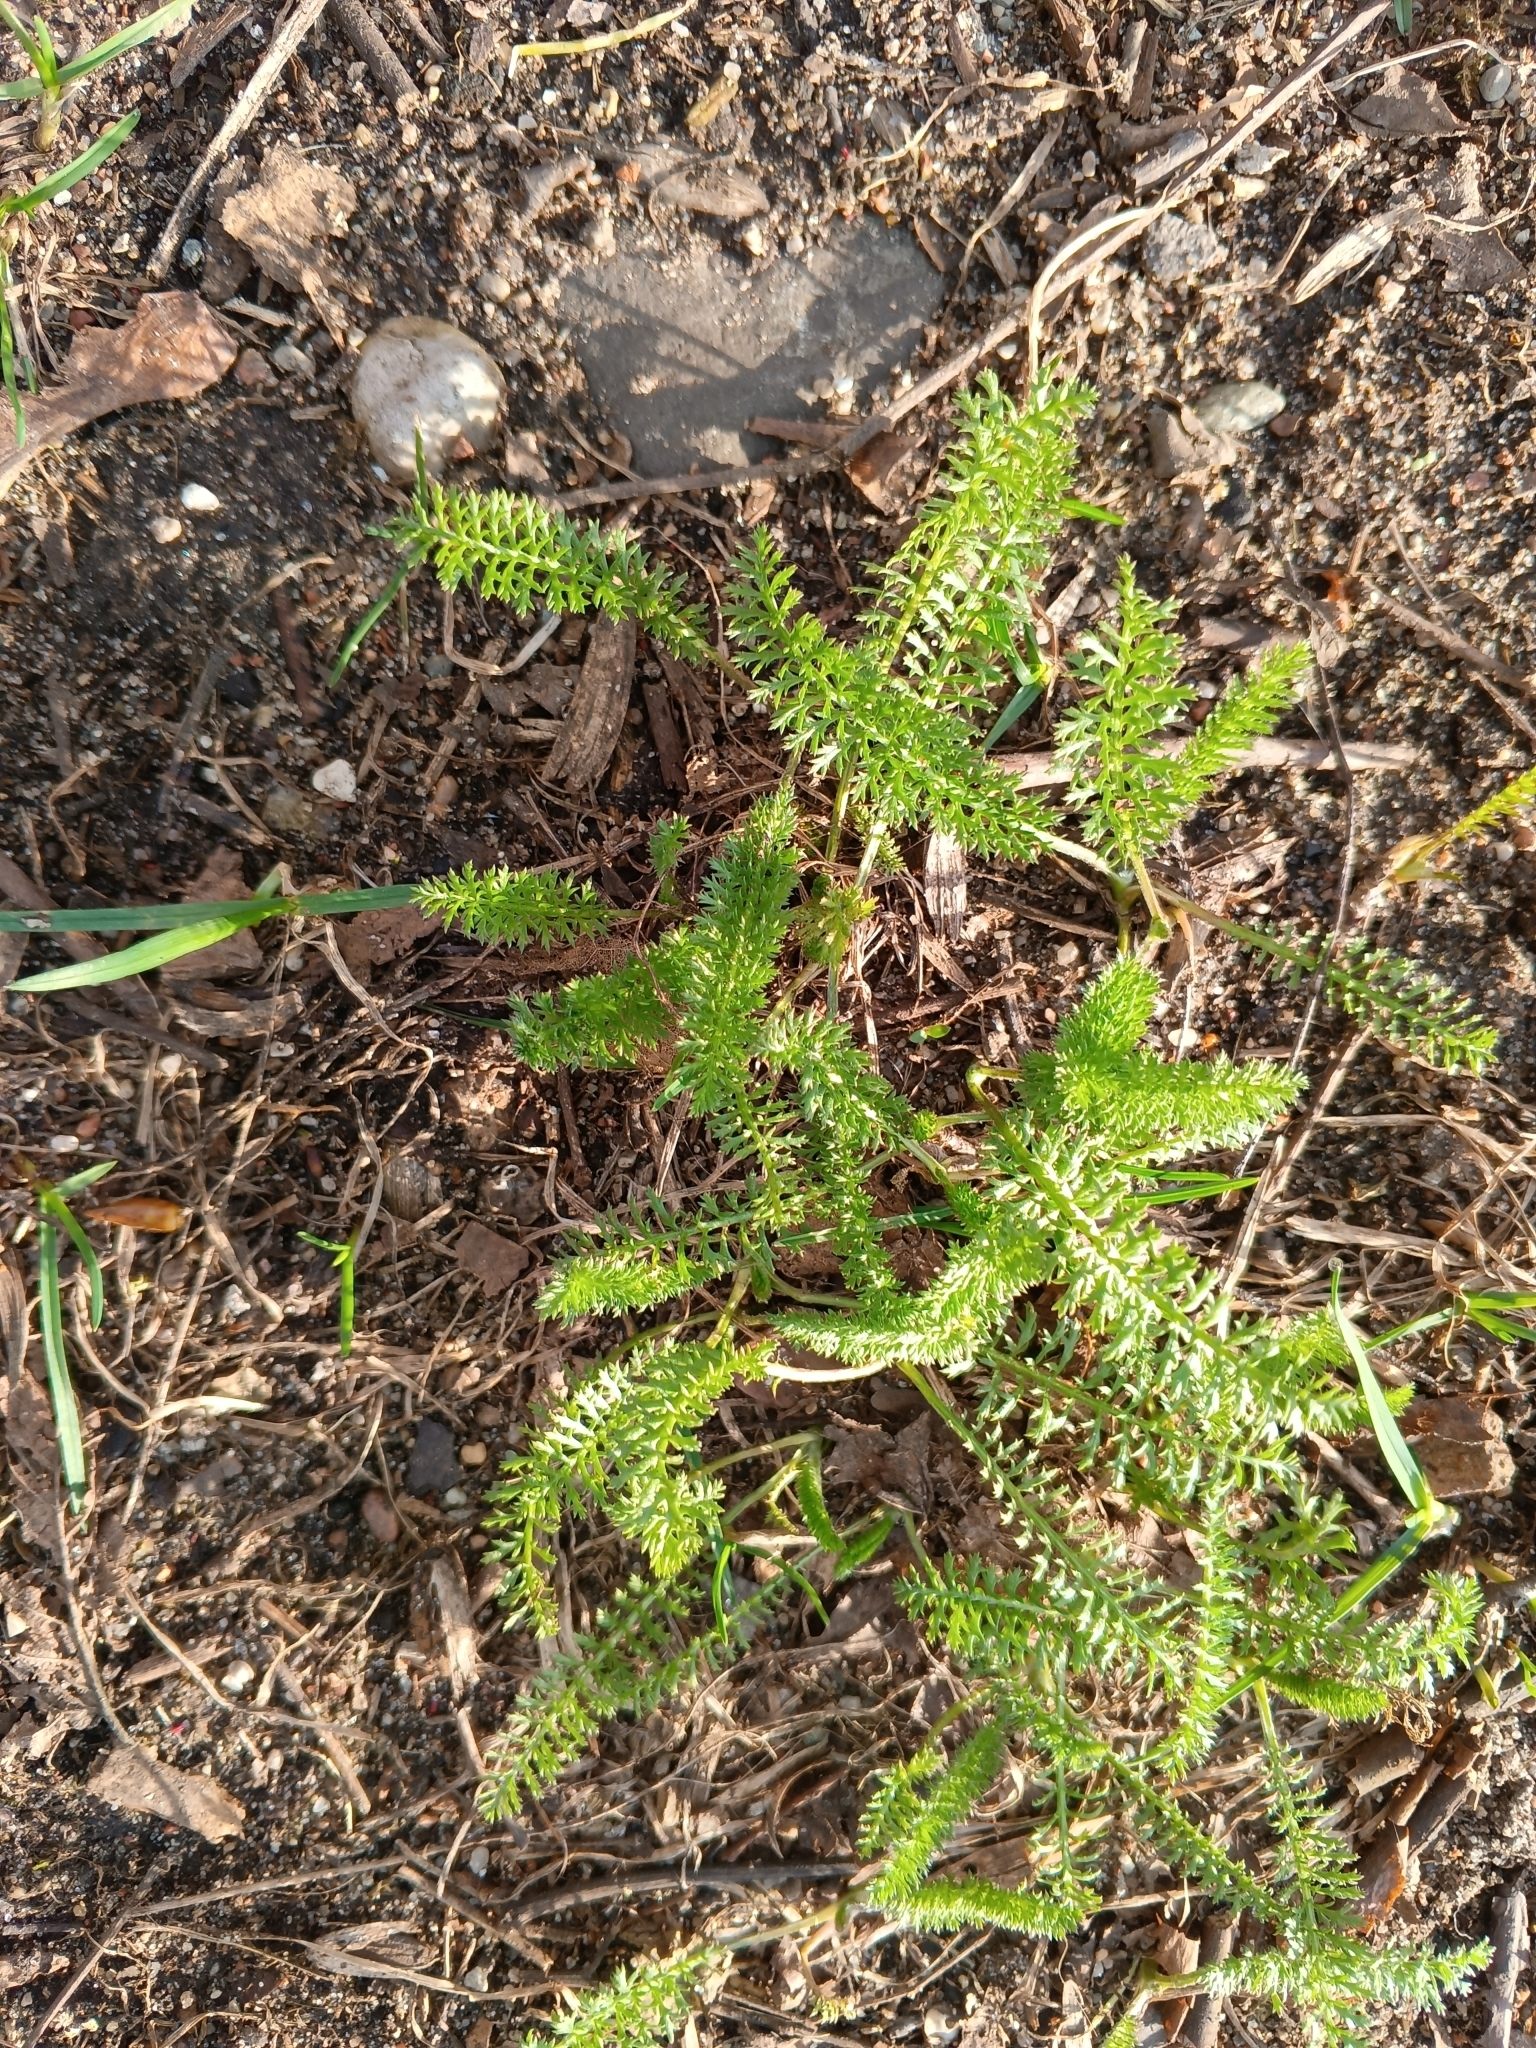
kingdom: Plantae
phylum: Tracheophyta
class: Magnoliopsida
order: Asterales
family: Asteraceae
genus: Achillea
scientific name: Achillea millefolium
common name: Yarrow
